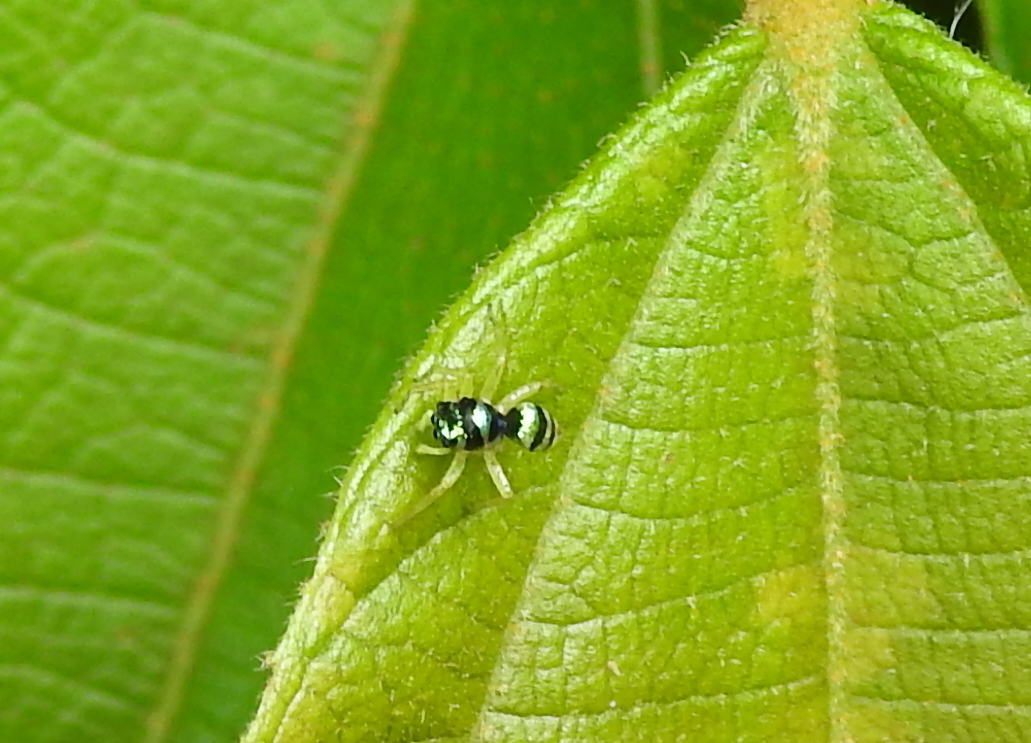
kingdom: Animalia
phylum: Arthropoda
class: Arachnida
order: Araneae
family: Salticidae
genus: Phintella
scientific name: Phintella vittata
